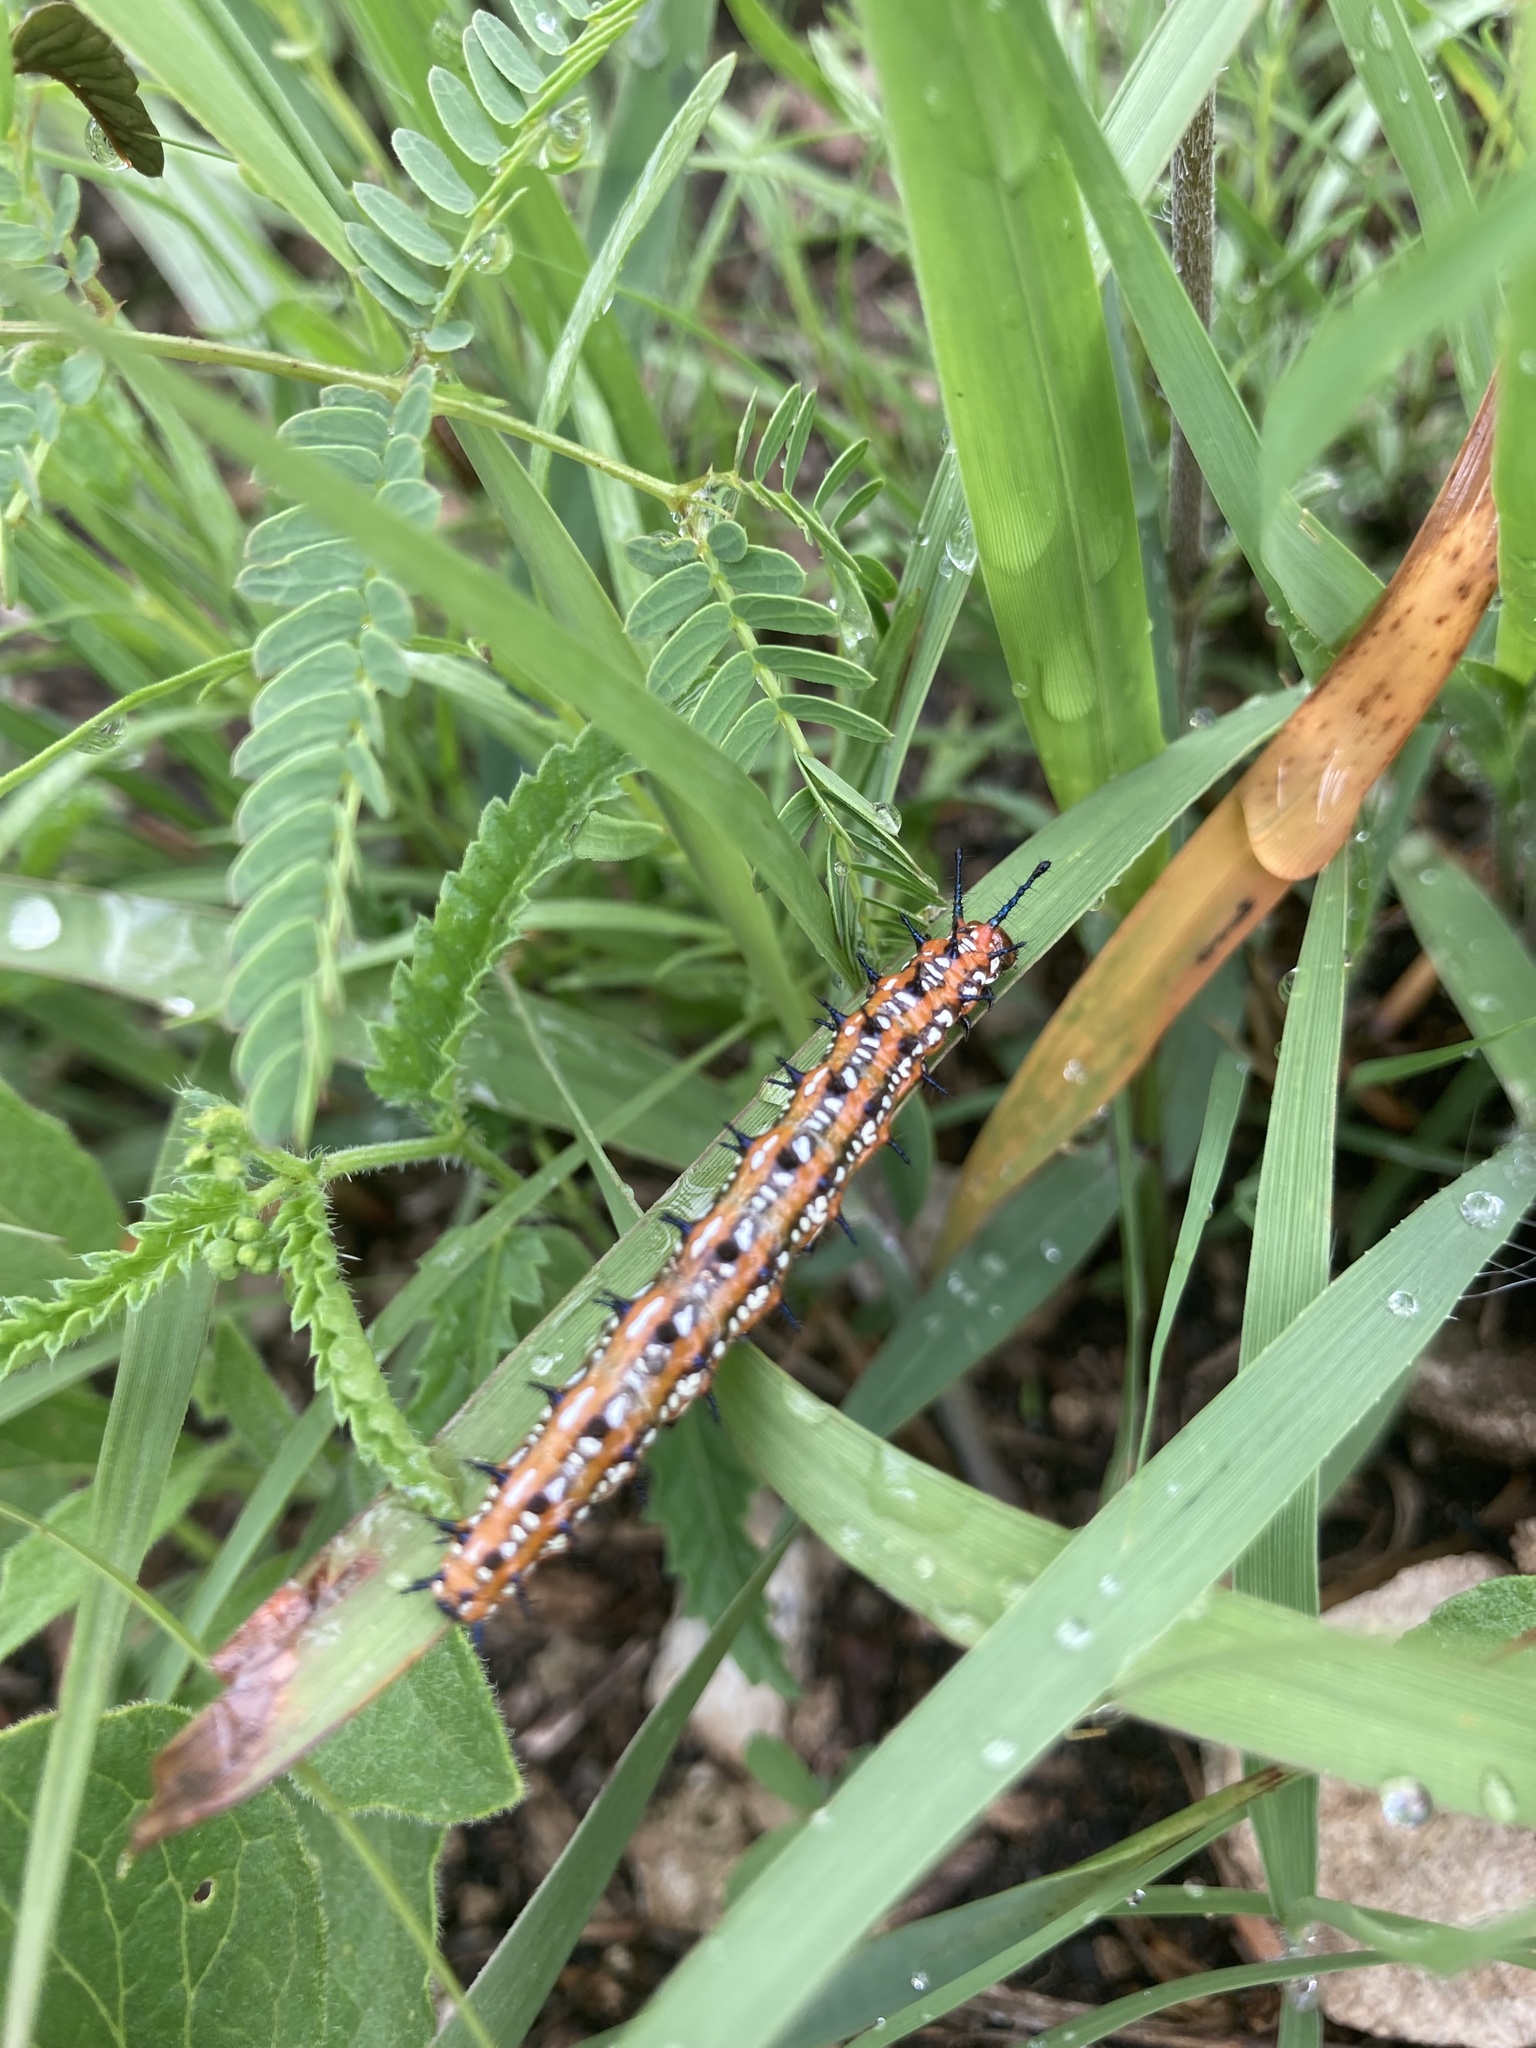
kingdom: Animalia
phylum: Arthropoda
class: Insecta
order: Lepidoptera
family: Nymphalidae
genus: Euptoieta
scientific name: Euptoieta claudia
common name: Variegated fritillary
